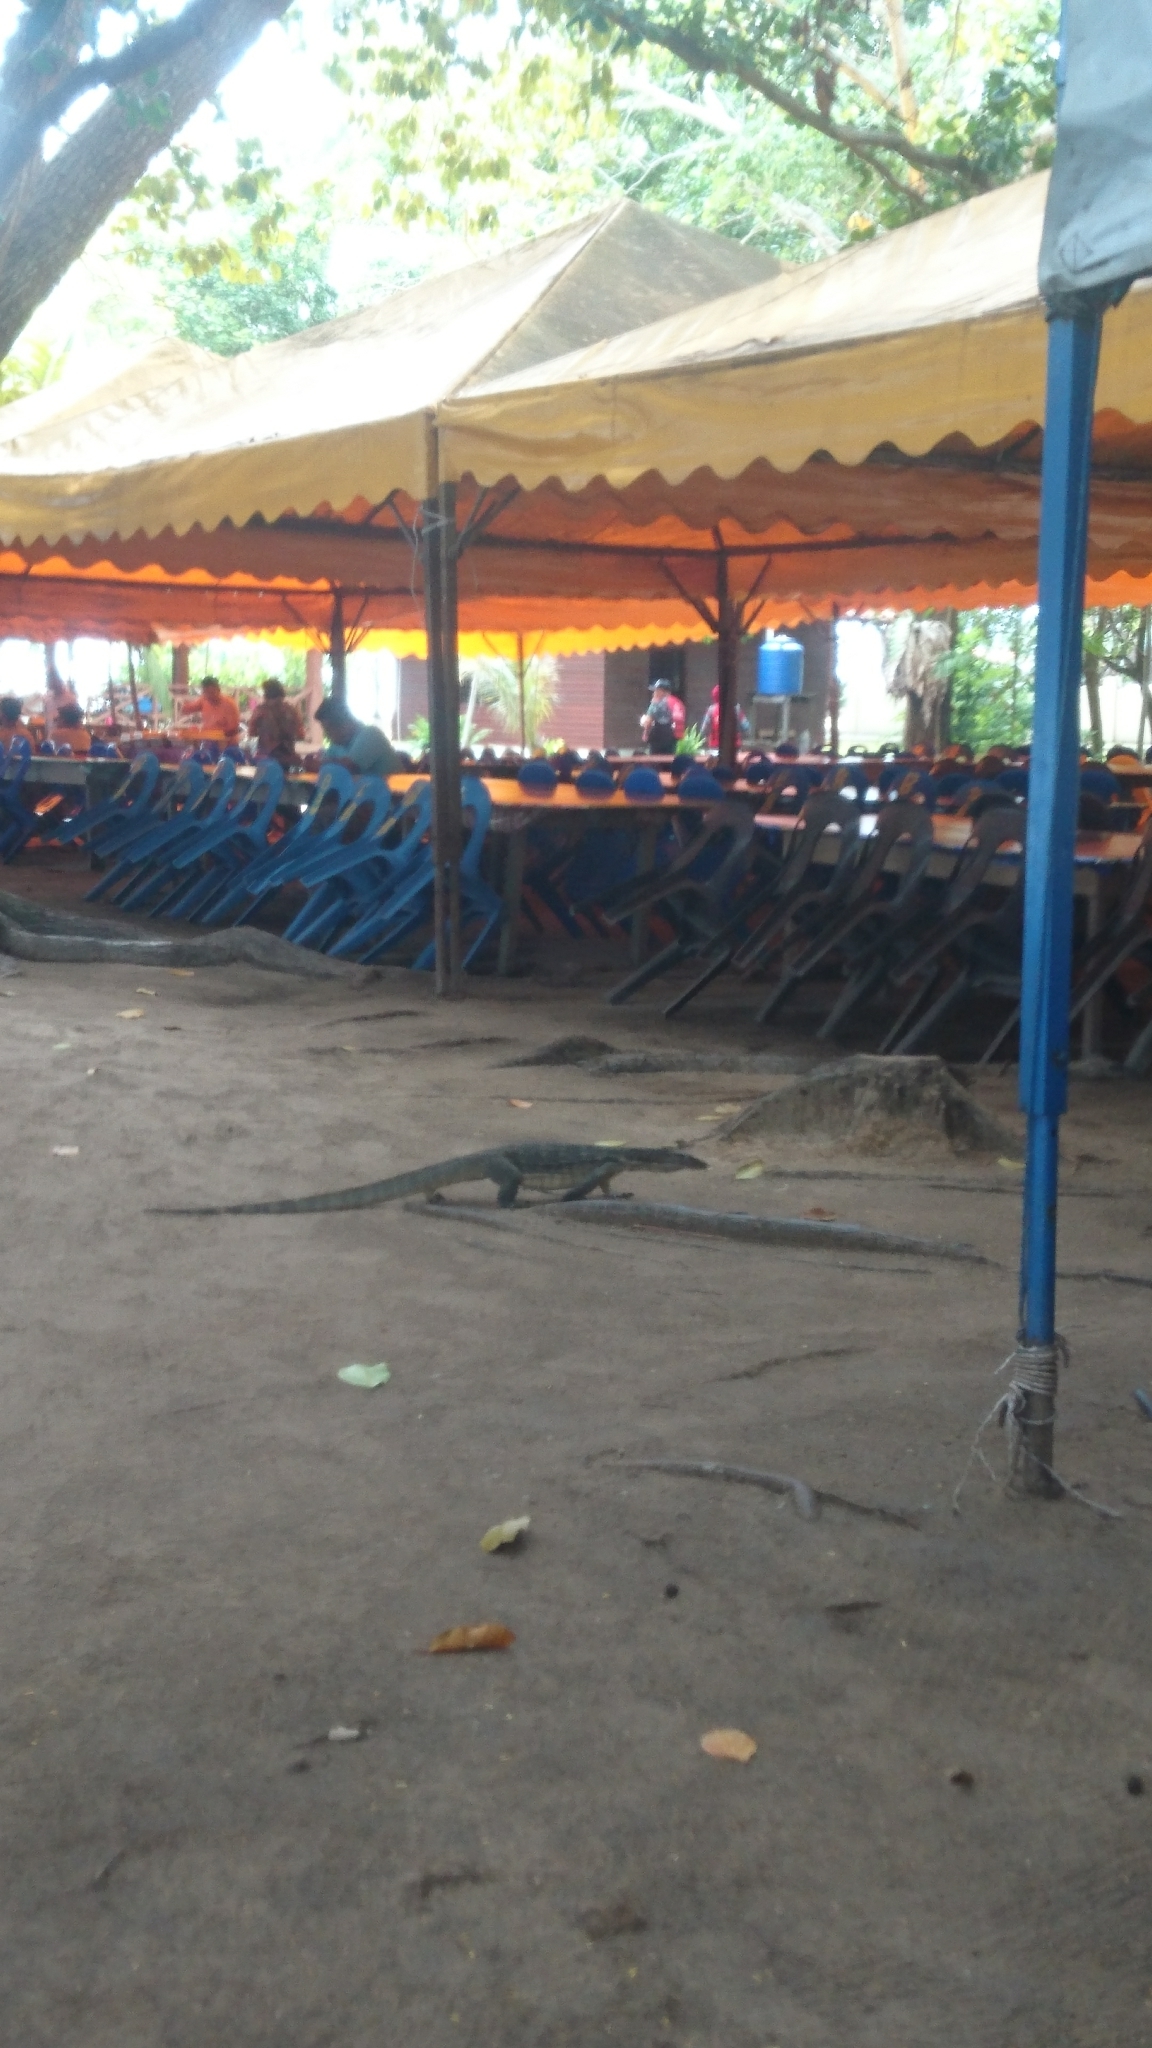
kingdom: Animalia
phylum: Chordata
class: Squamata
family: Varanidae
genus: Varanus
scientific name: Varanus salvator
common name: Common water monitor
